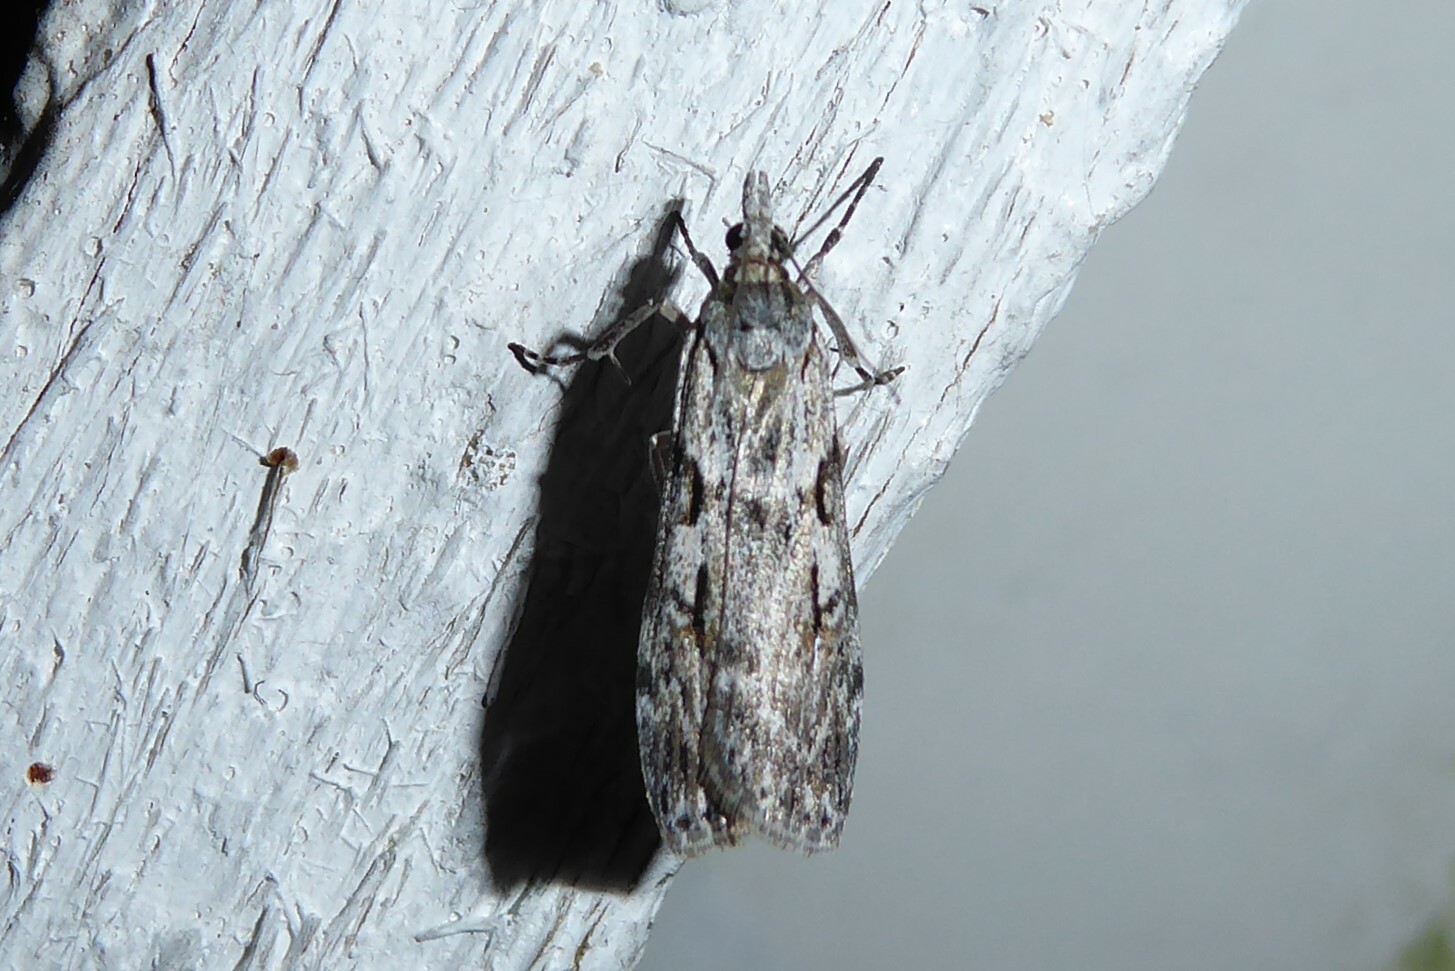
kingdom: Animalia
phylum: Arthropoda
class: Insecta
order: Lepidoptera
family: Crambidae
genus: Scoparia
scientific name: Scoparia halopis
